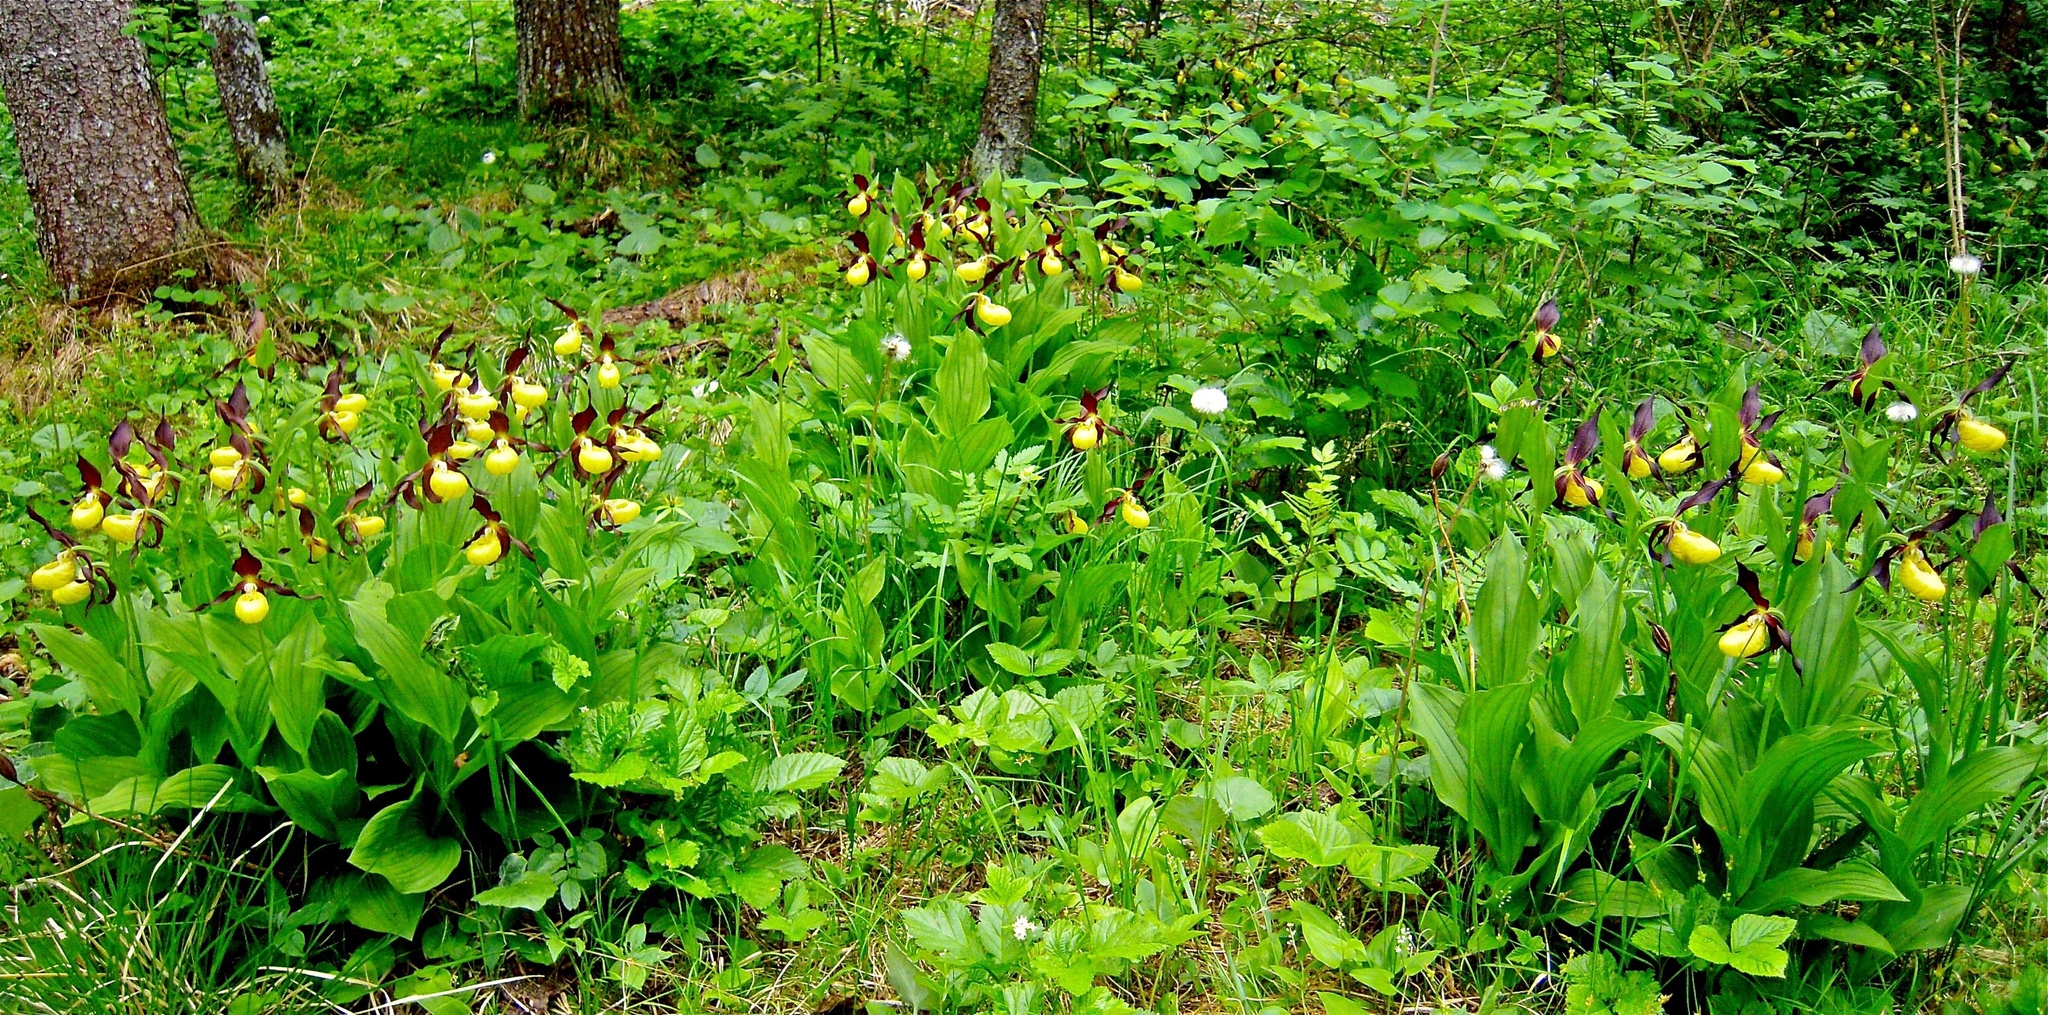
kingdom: Plantae
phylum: Tracheophyta
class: Liliopsida
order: Asparagales
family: Orchidaceae
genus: Cypripedium
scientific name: Cypripedium calceolus
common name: Lady's-slipper
